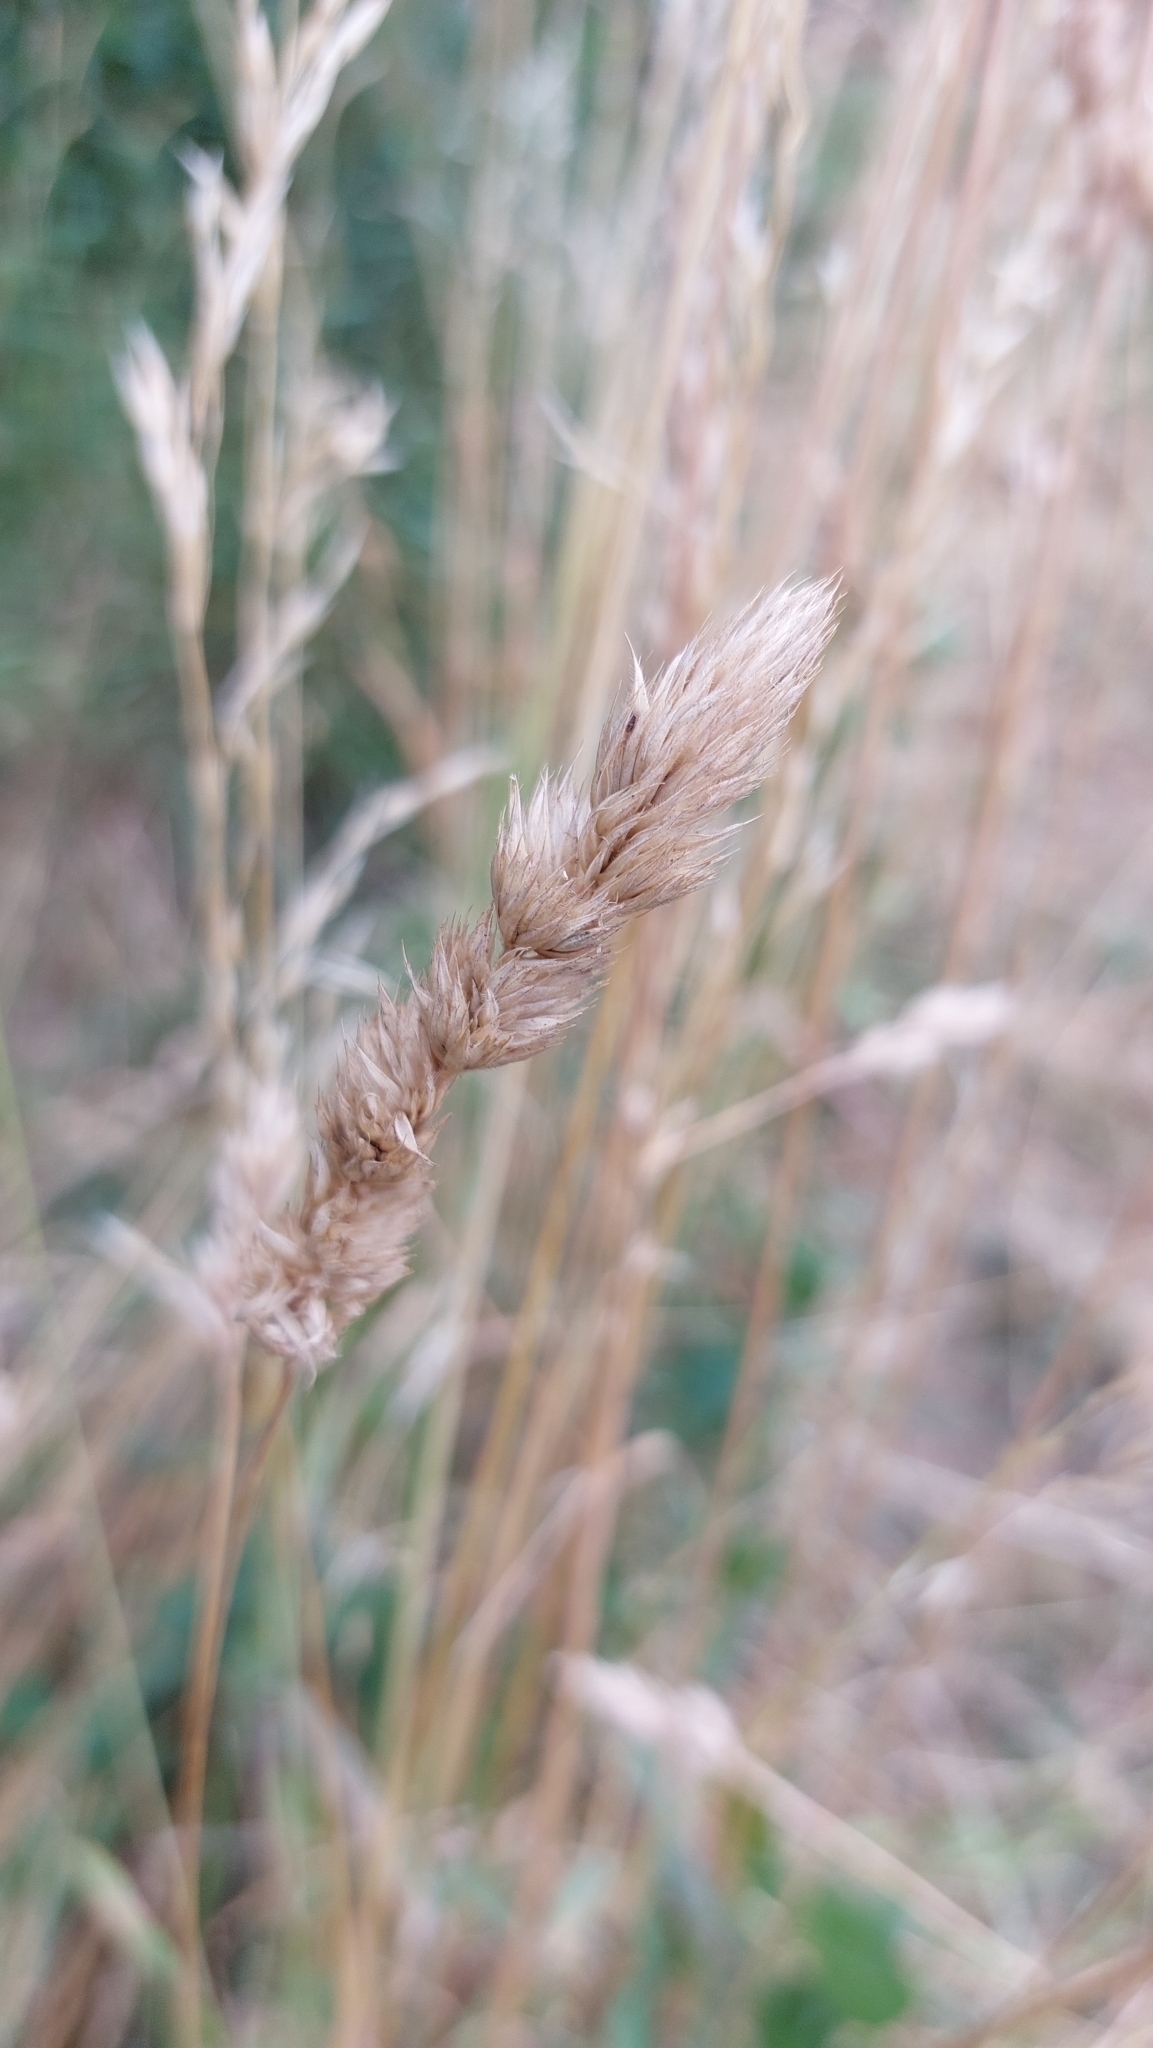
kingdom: Plantae
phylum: Tracheophyta
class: Liliopsida
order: Poales
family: Poaceae
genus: Dactylis
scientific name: Dactylis glomerata
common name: Orchardgrass
